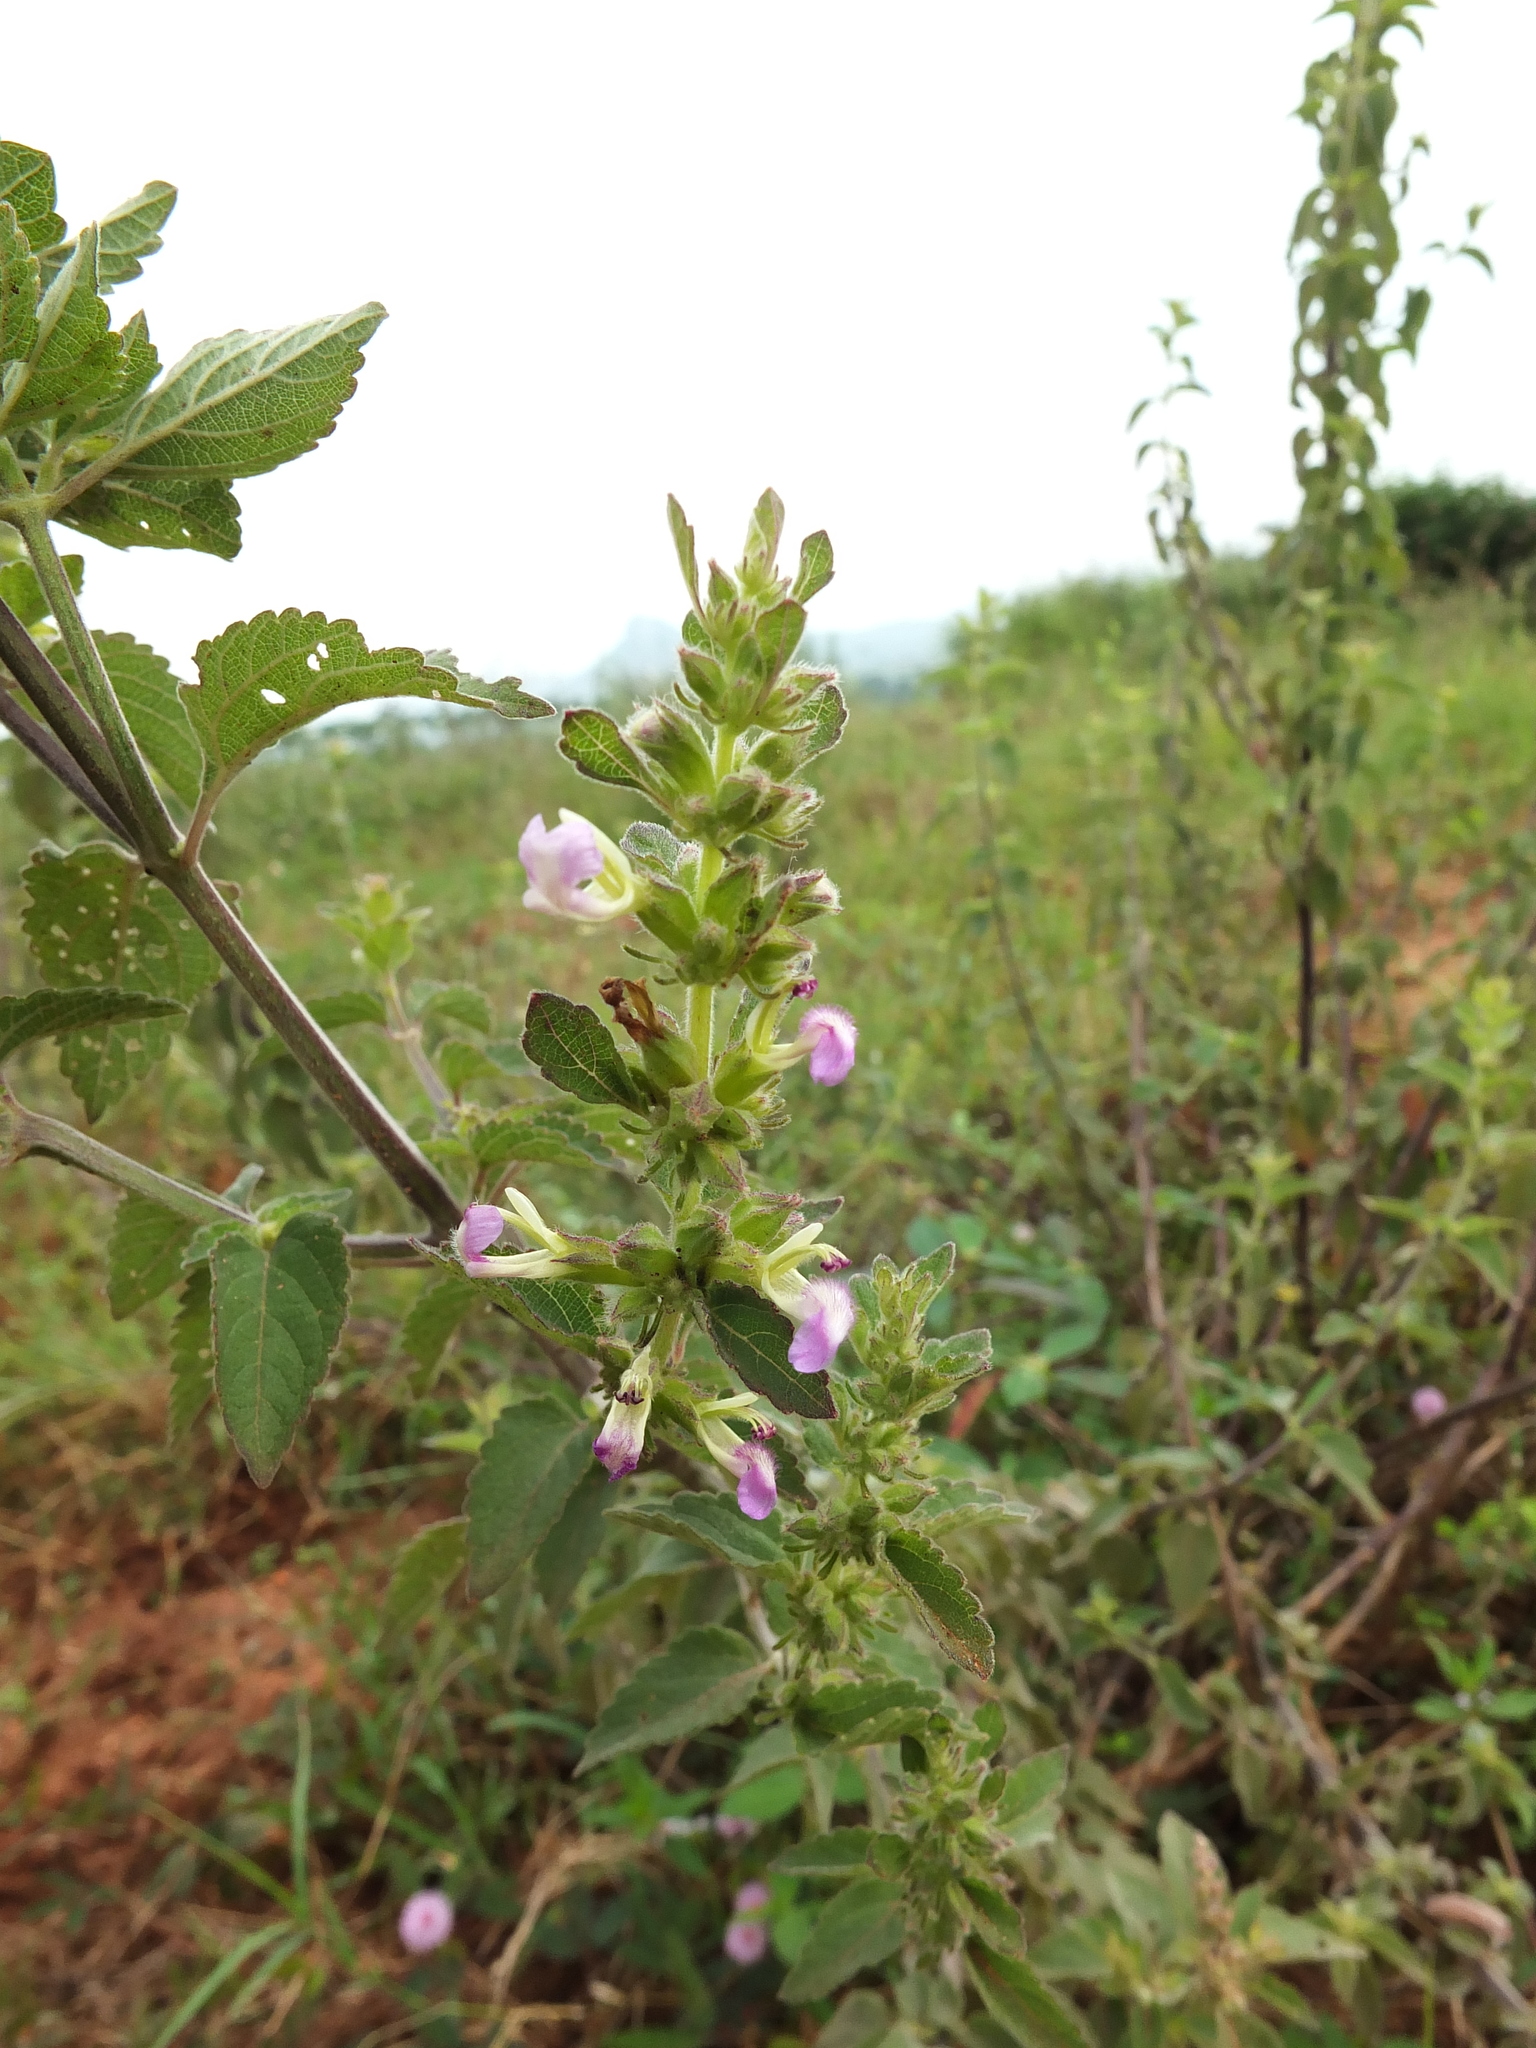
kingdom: Plantae
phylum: Tracheophyta
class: Magnoliopsida
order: Lamiales
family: Lamiaceae
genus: Anisomeles
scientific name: Anisomeles indica
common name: Catmint
